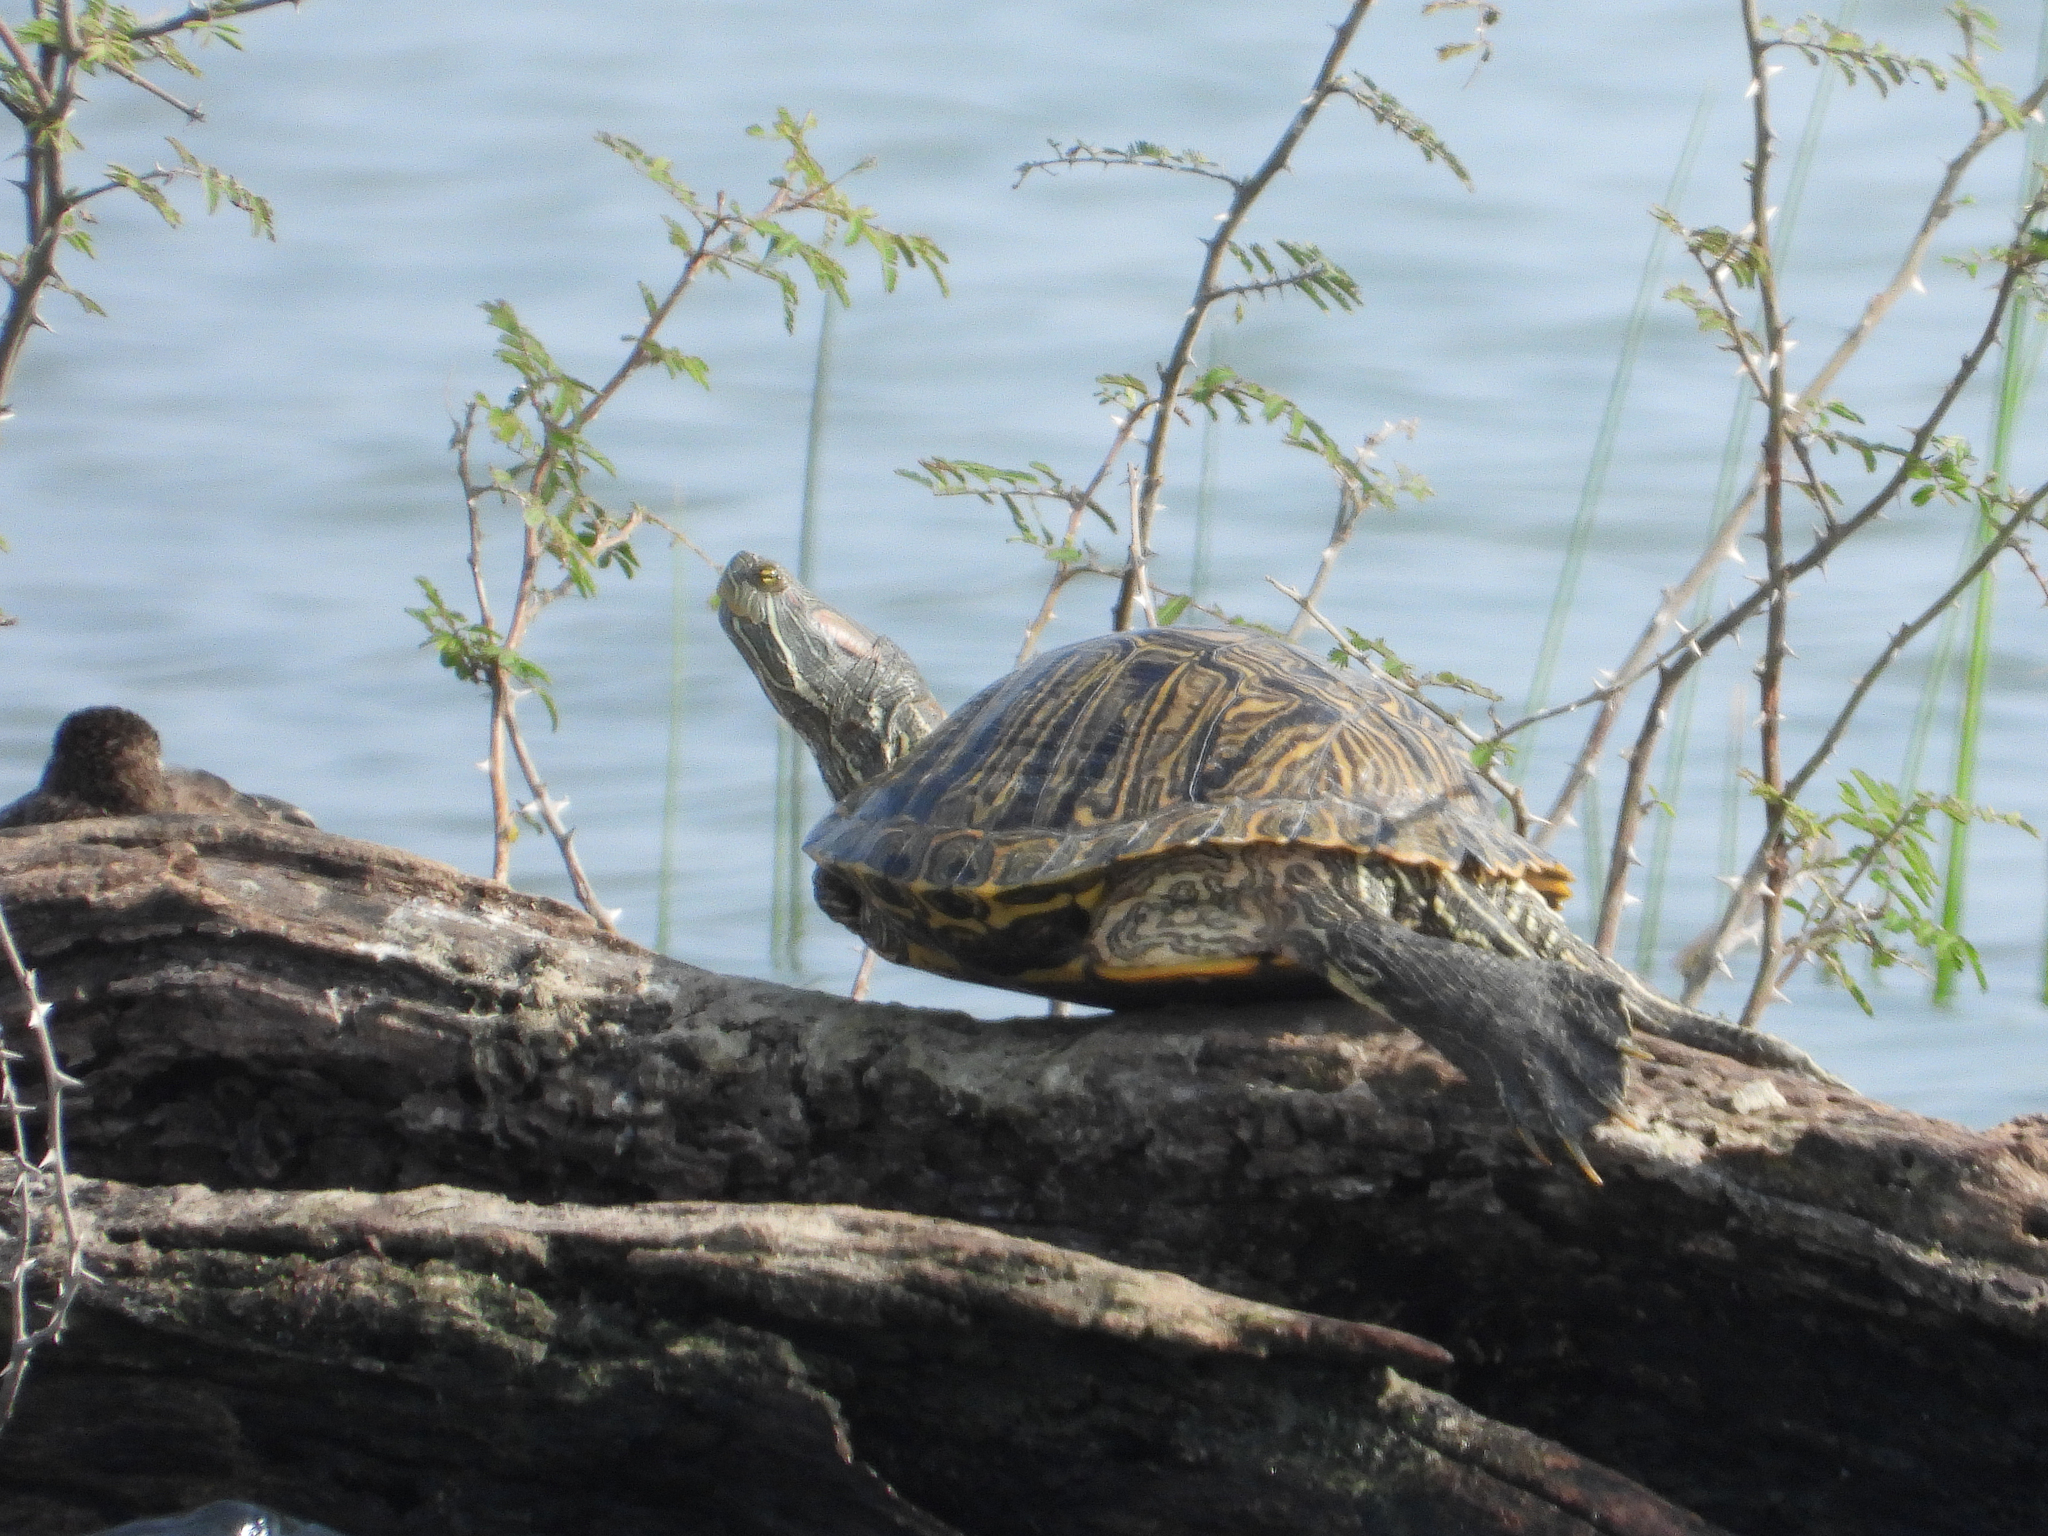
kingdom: Animalia
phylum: Chordata
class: Testudines
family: Emydidae
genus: Trachemys
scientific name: Trachemys scripta
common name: Slider
